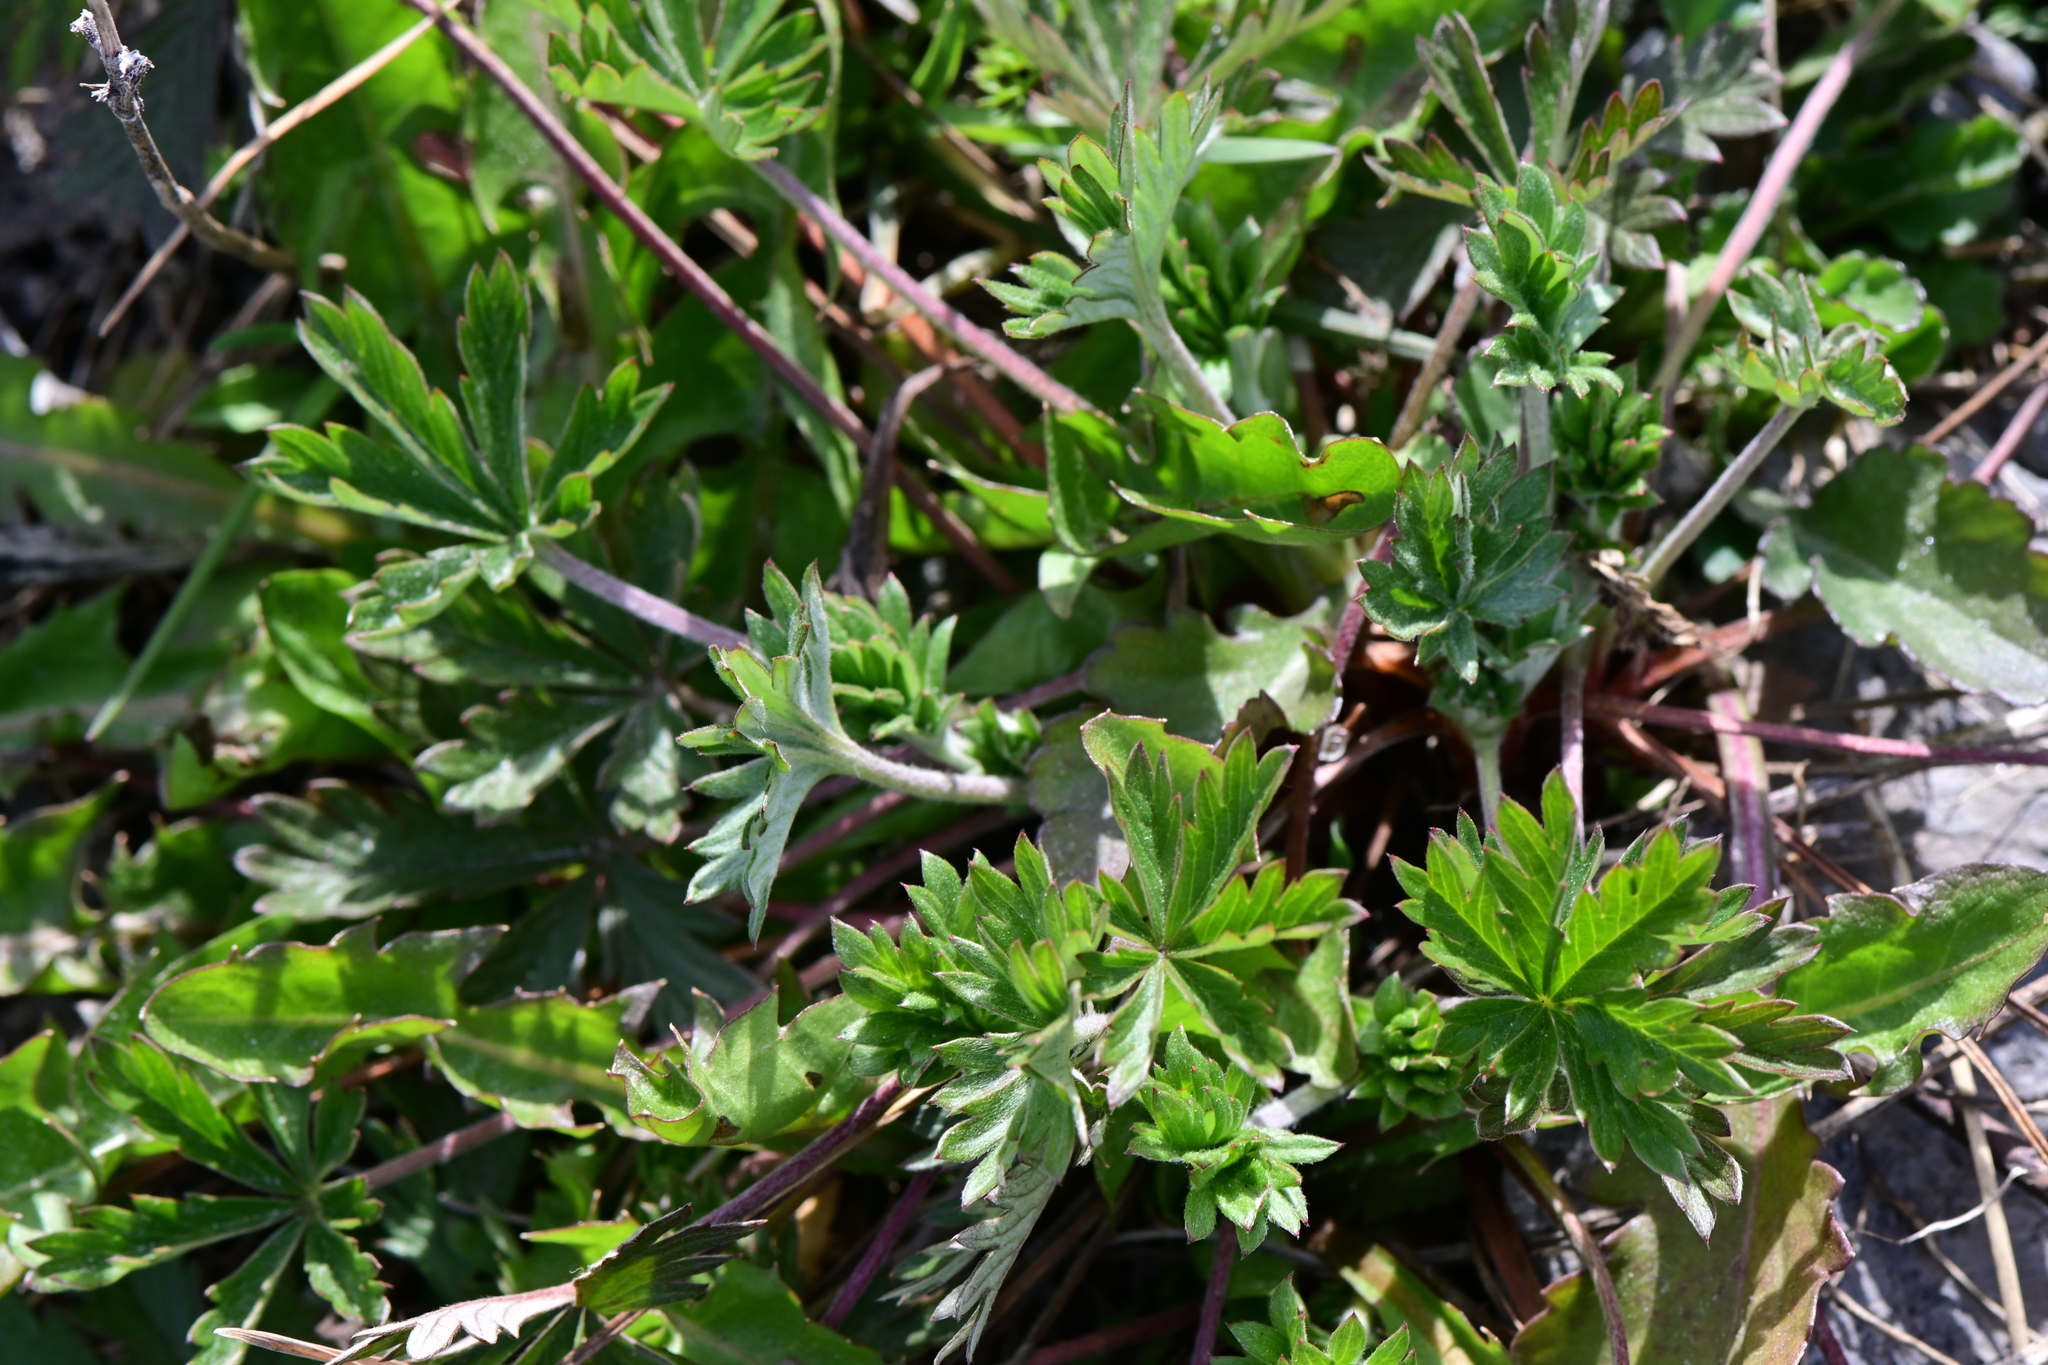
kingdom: Plantae
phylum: Tracheophyta
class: Magnoliopsida
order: Rosales
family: Rosaceae
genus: Potentilla
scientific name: Potentilla argentea
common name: Hoary cinquefoil
